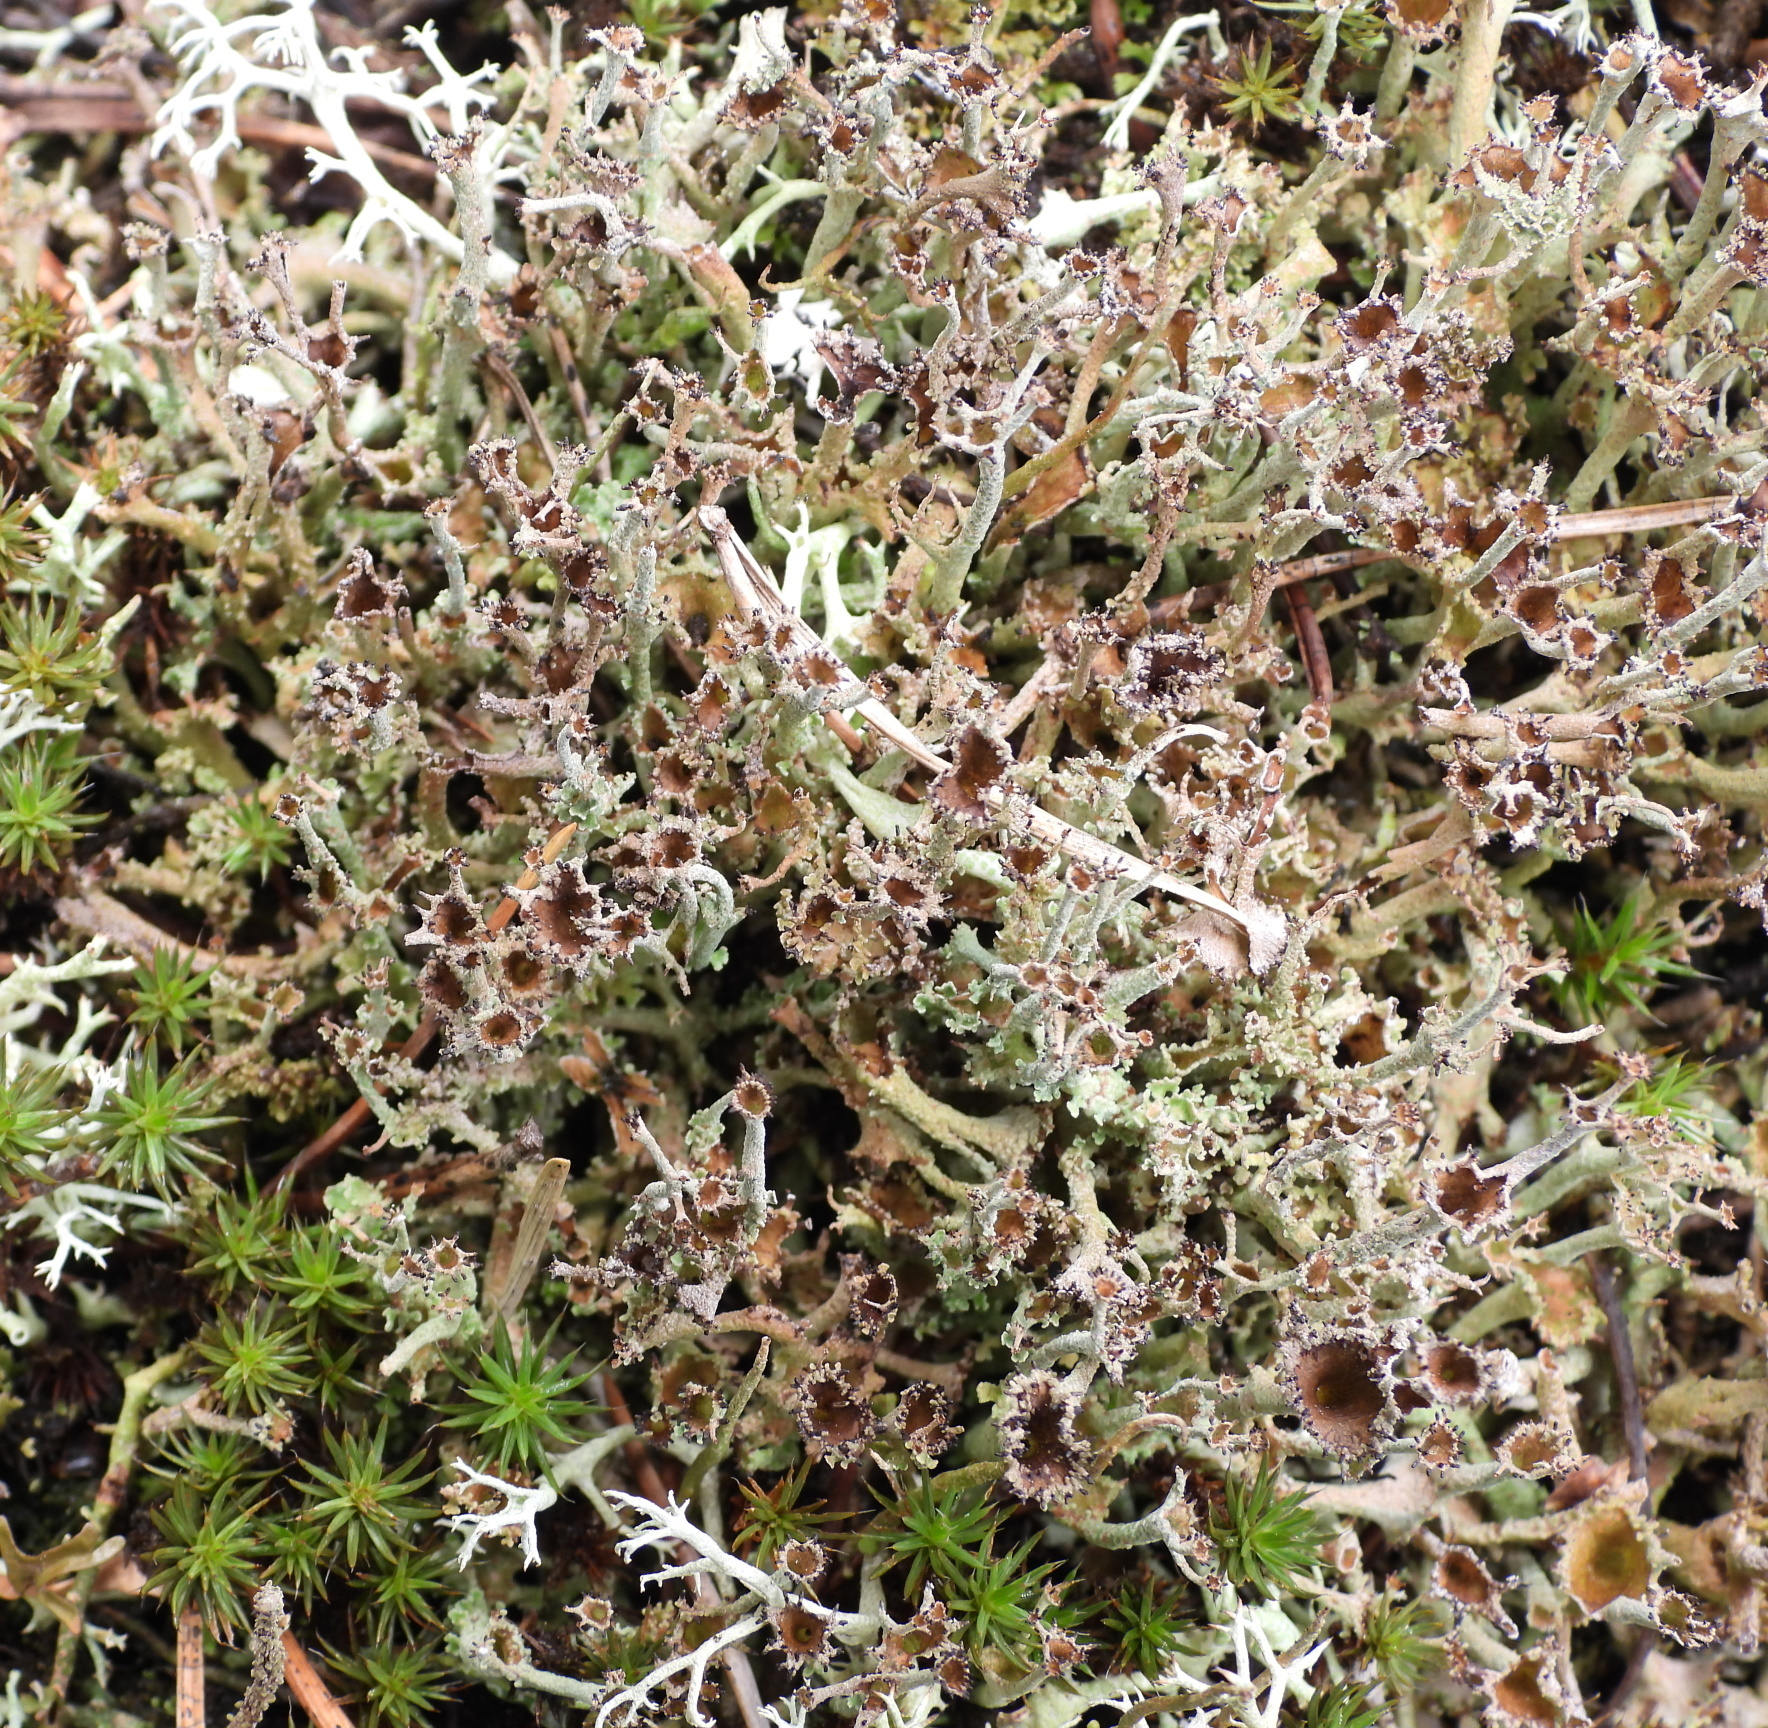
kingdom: Fungi
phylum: Ascomycota
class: Lecanoromycetes
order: Lecanorales
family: Cladoniaceae
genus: Cladonia
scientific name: Cladonia crispata
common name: Organ-pipe lichen
